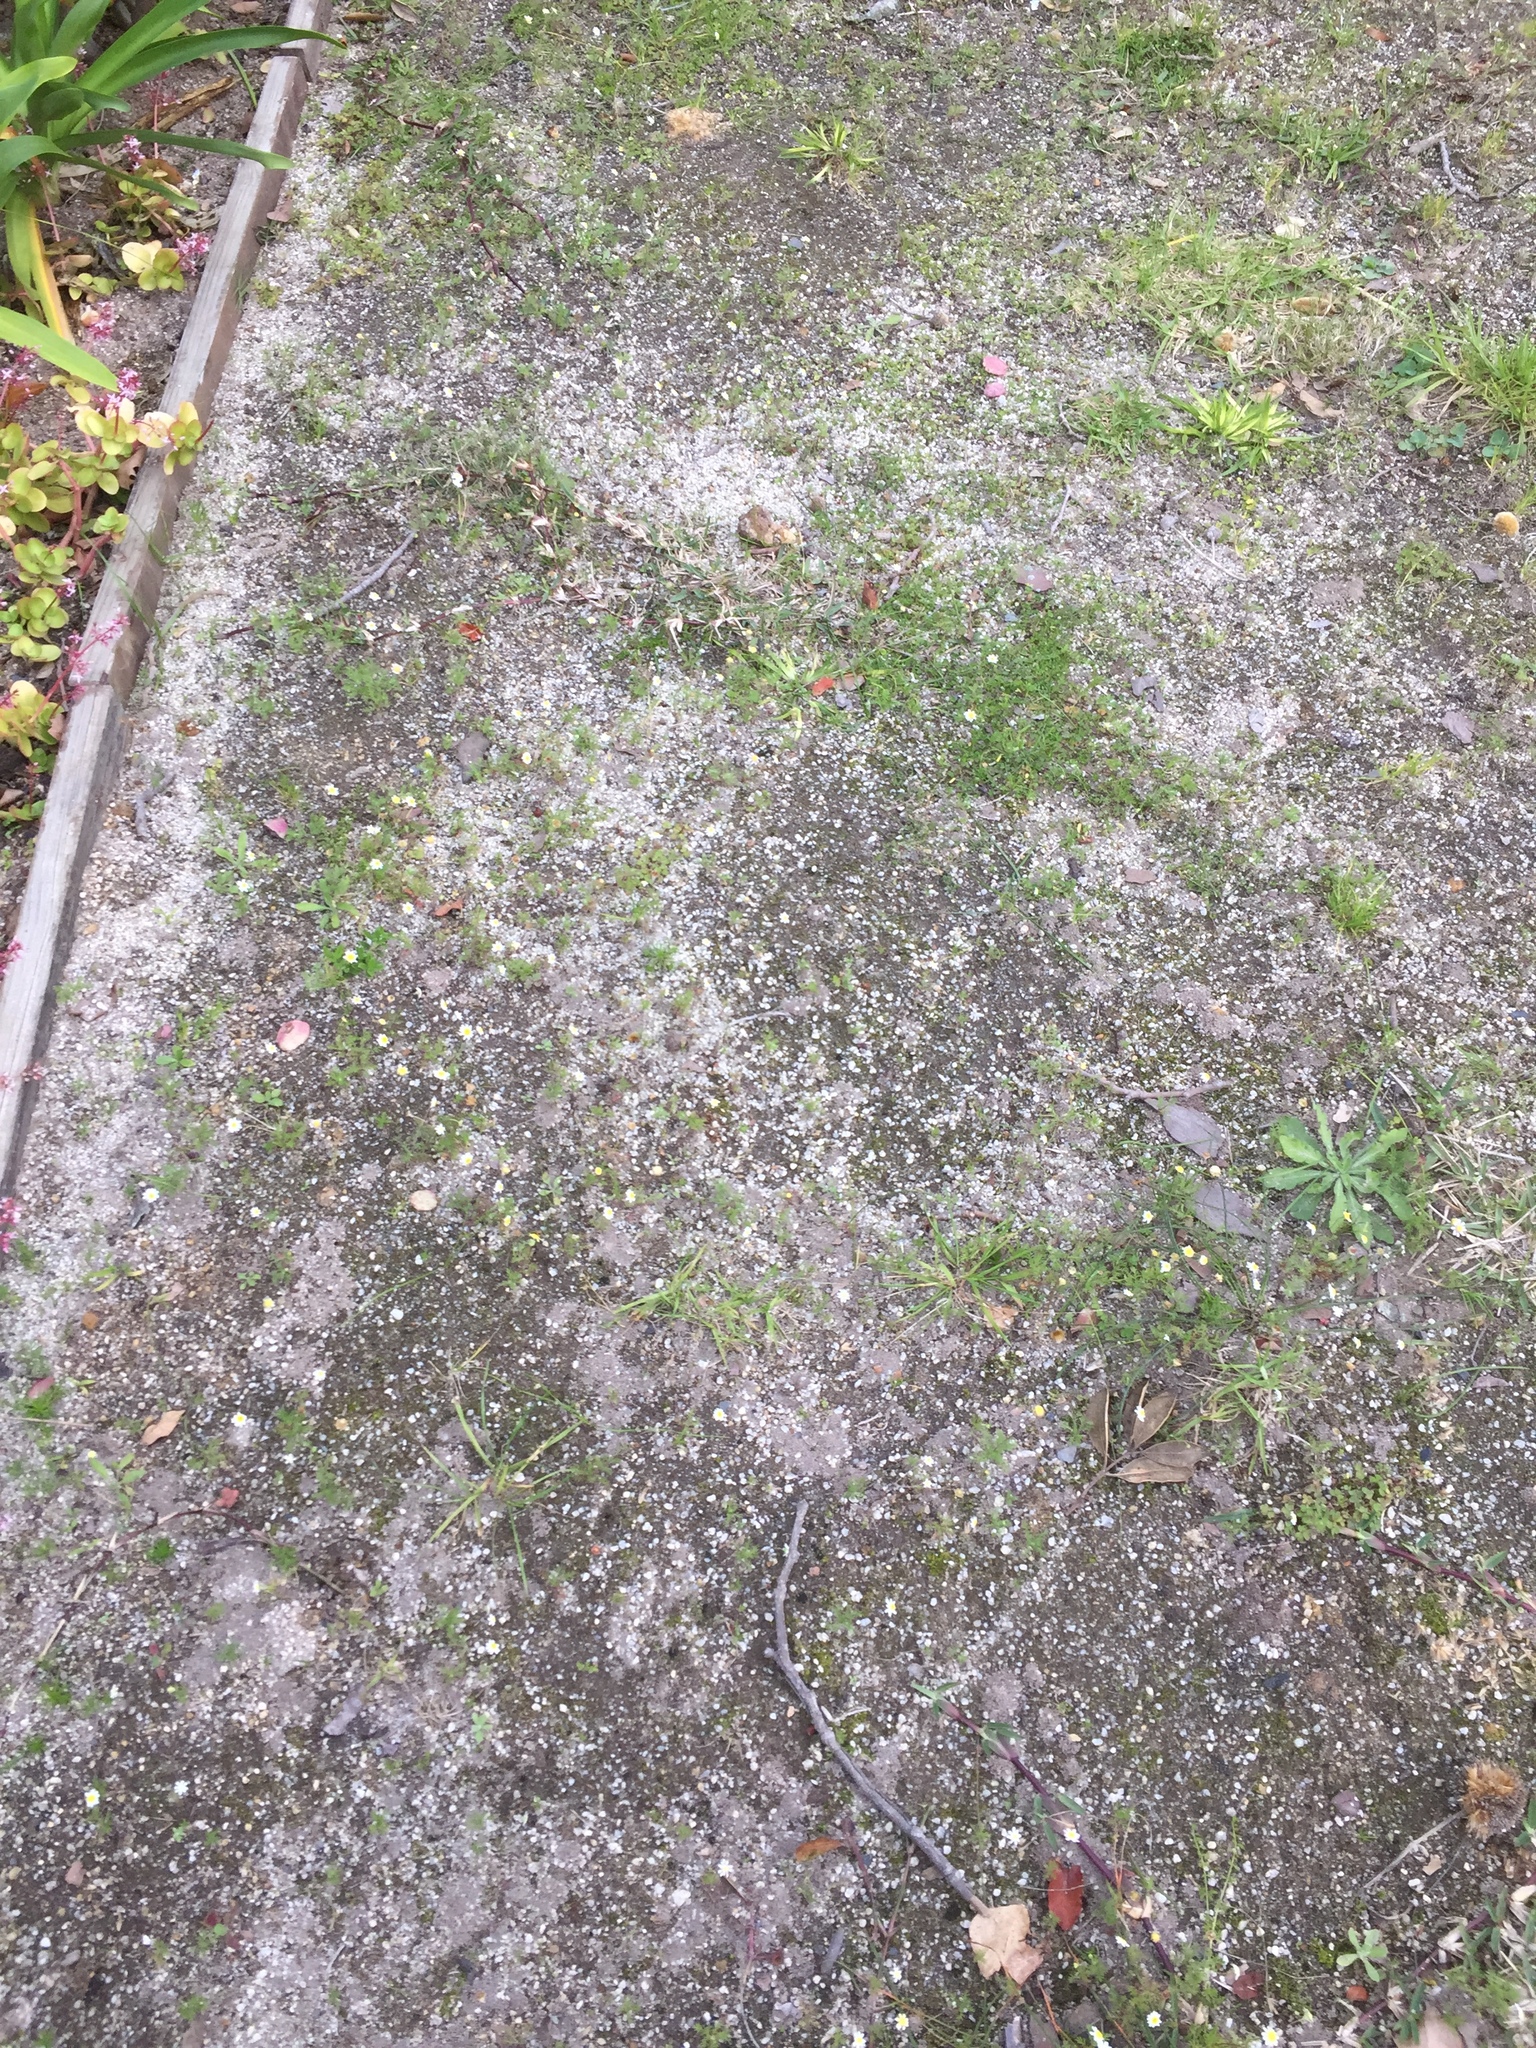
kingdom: Plantae
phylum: Tracheophyta
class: Magnoliopsida
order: Asterales
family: Asteraceae
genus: Cotula
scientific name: Cotula turbinata
